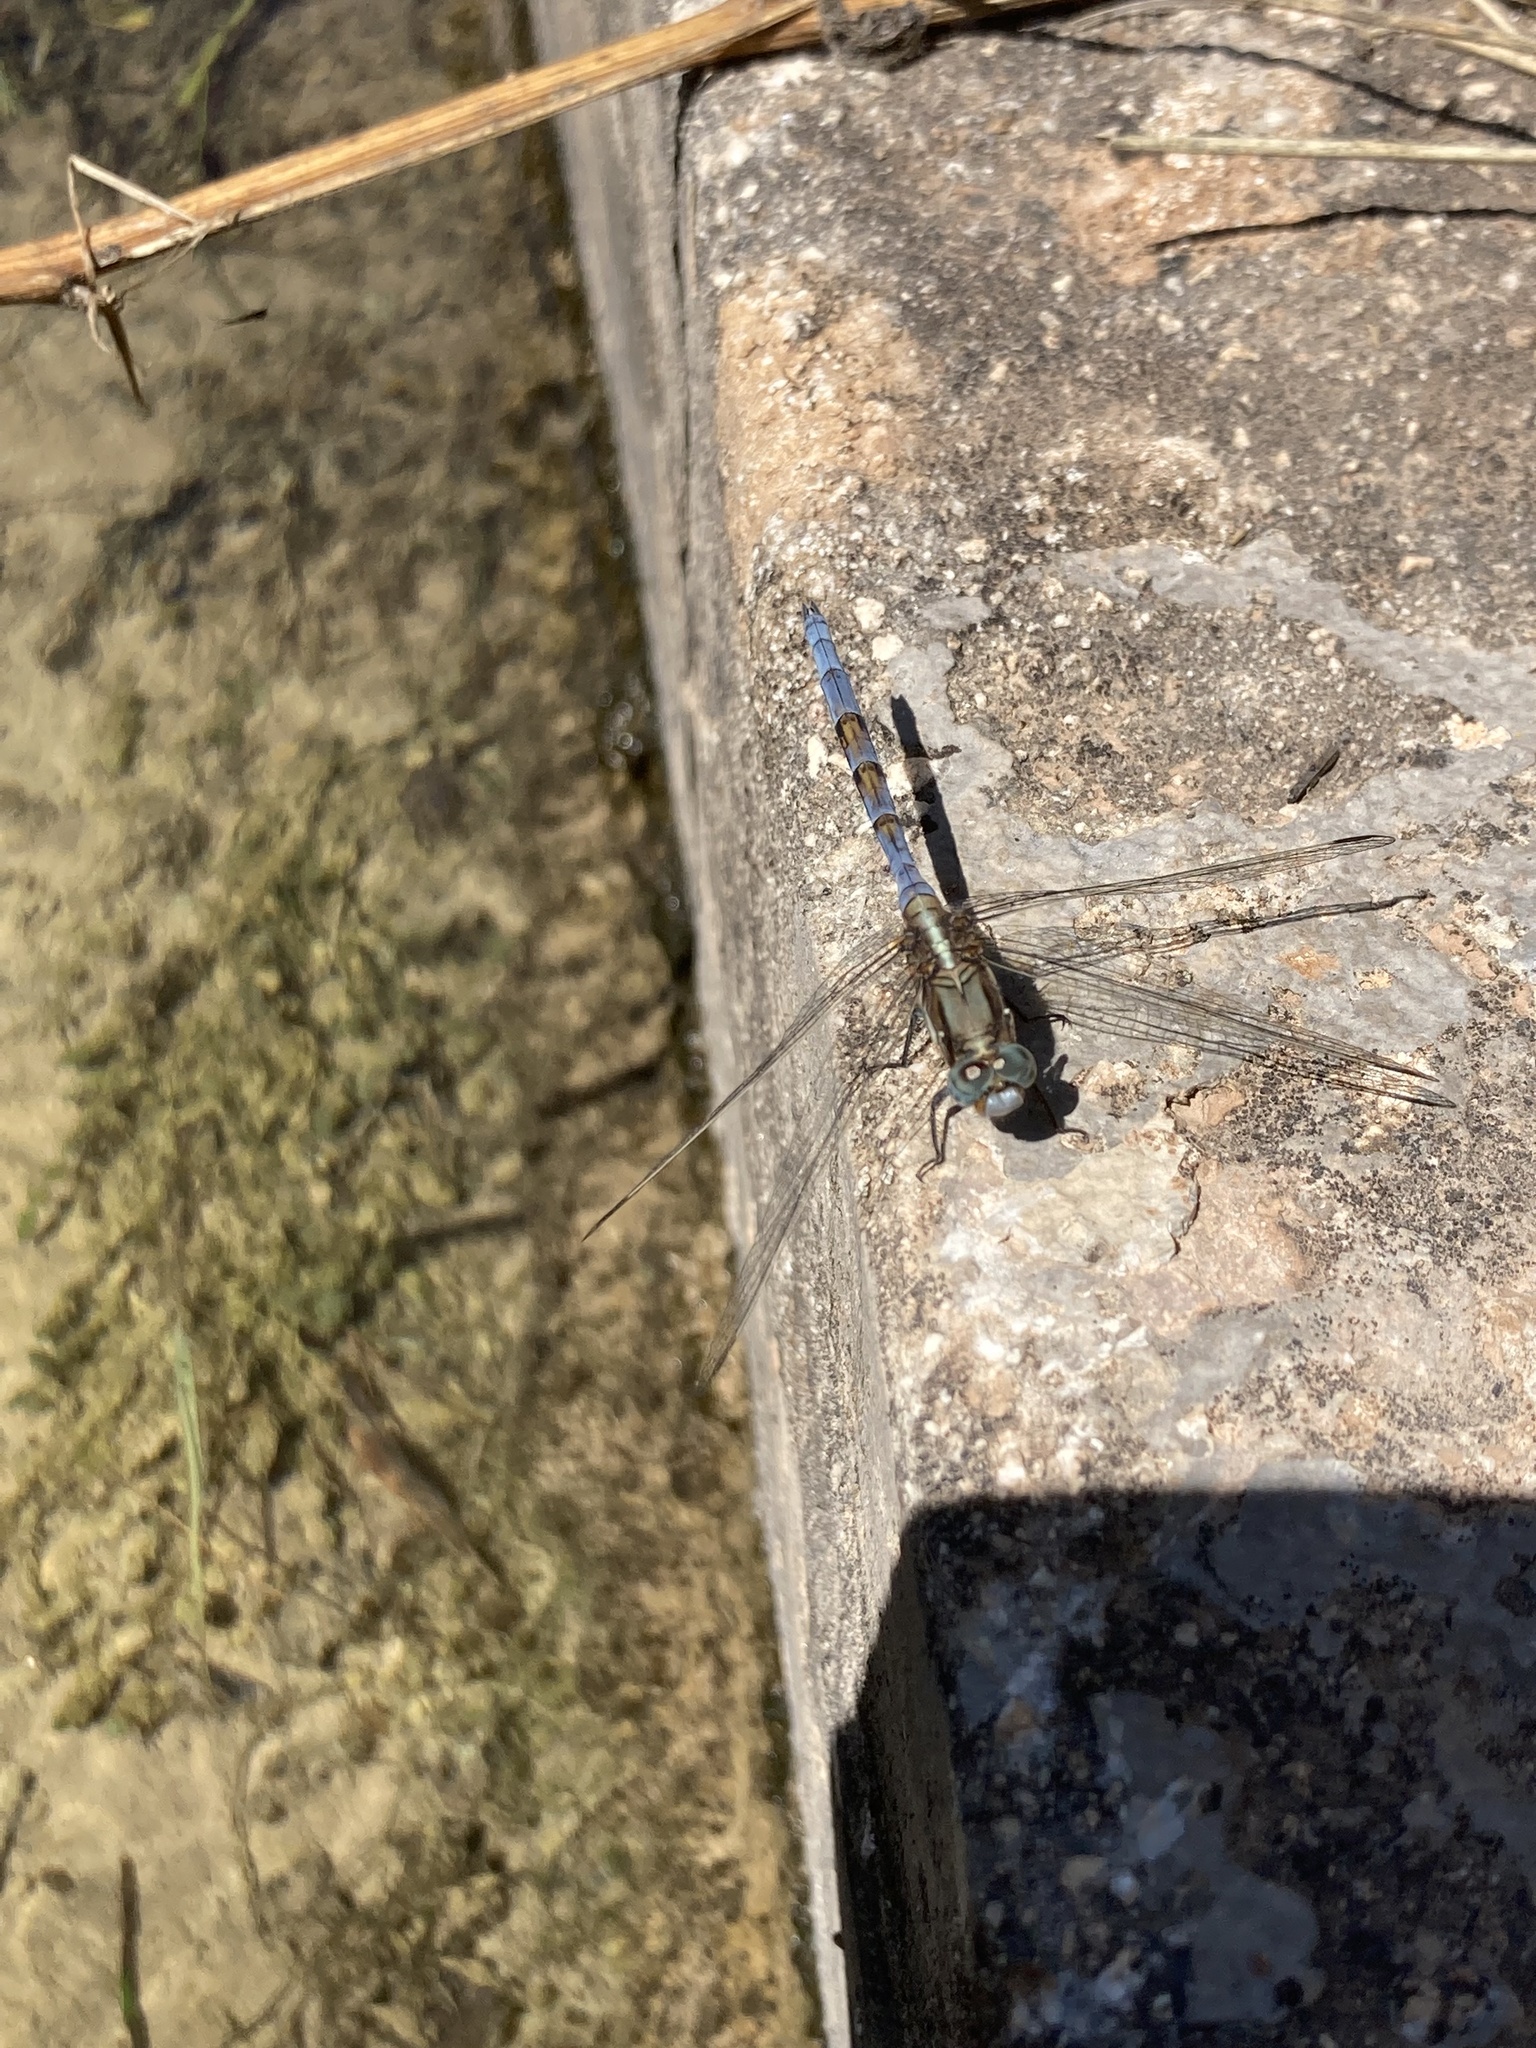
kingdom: Animalia
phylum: Arthropoda
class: Insecta
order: Odonata
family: Libellulidae
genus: Orthetrum
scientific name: Orthetrum chrysostigma
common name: Epaulet skimmer
